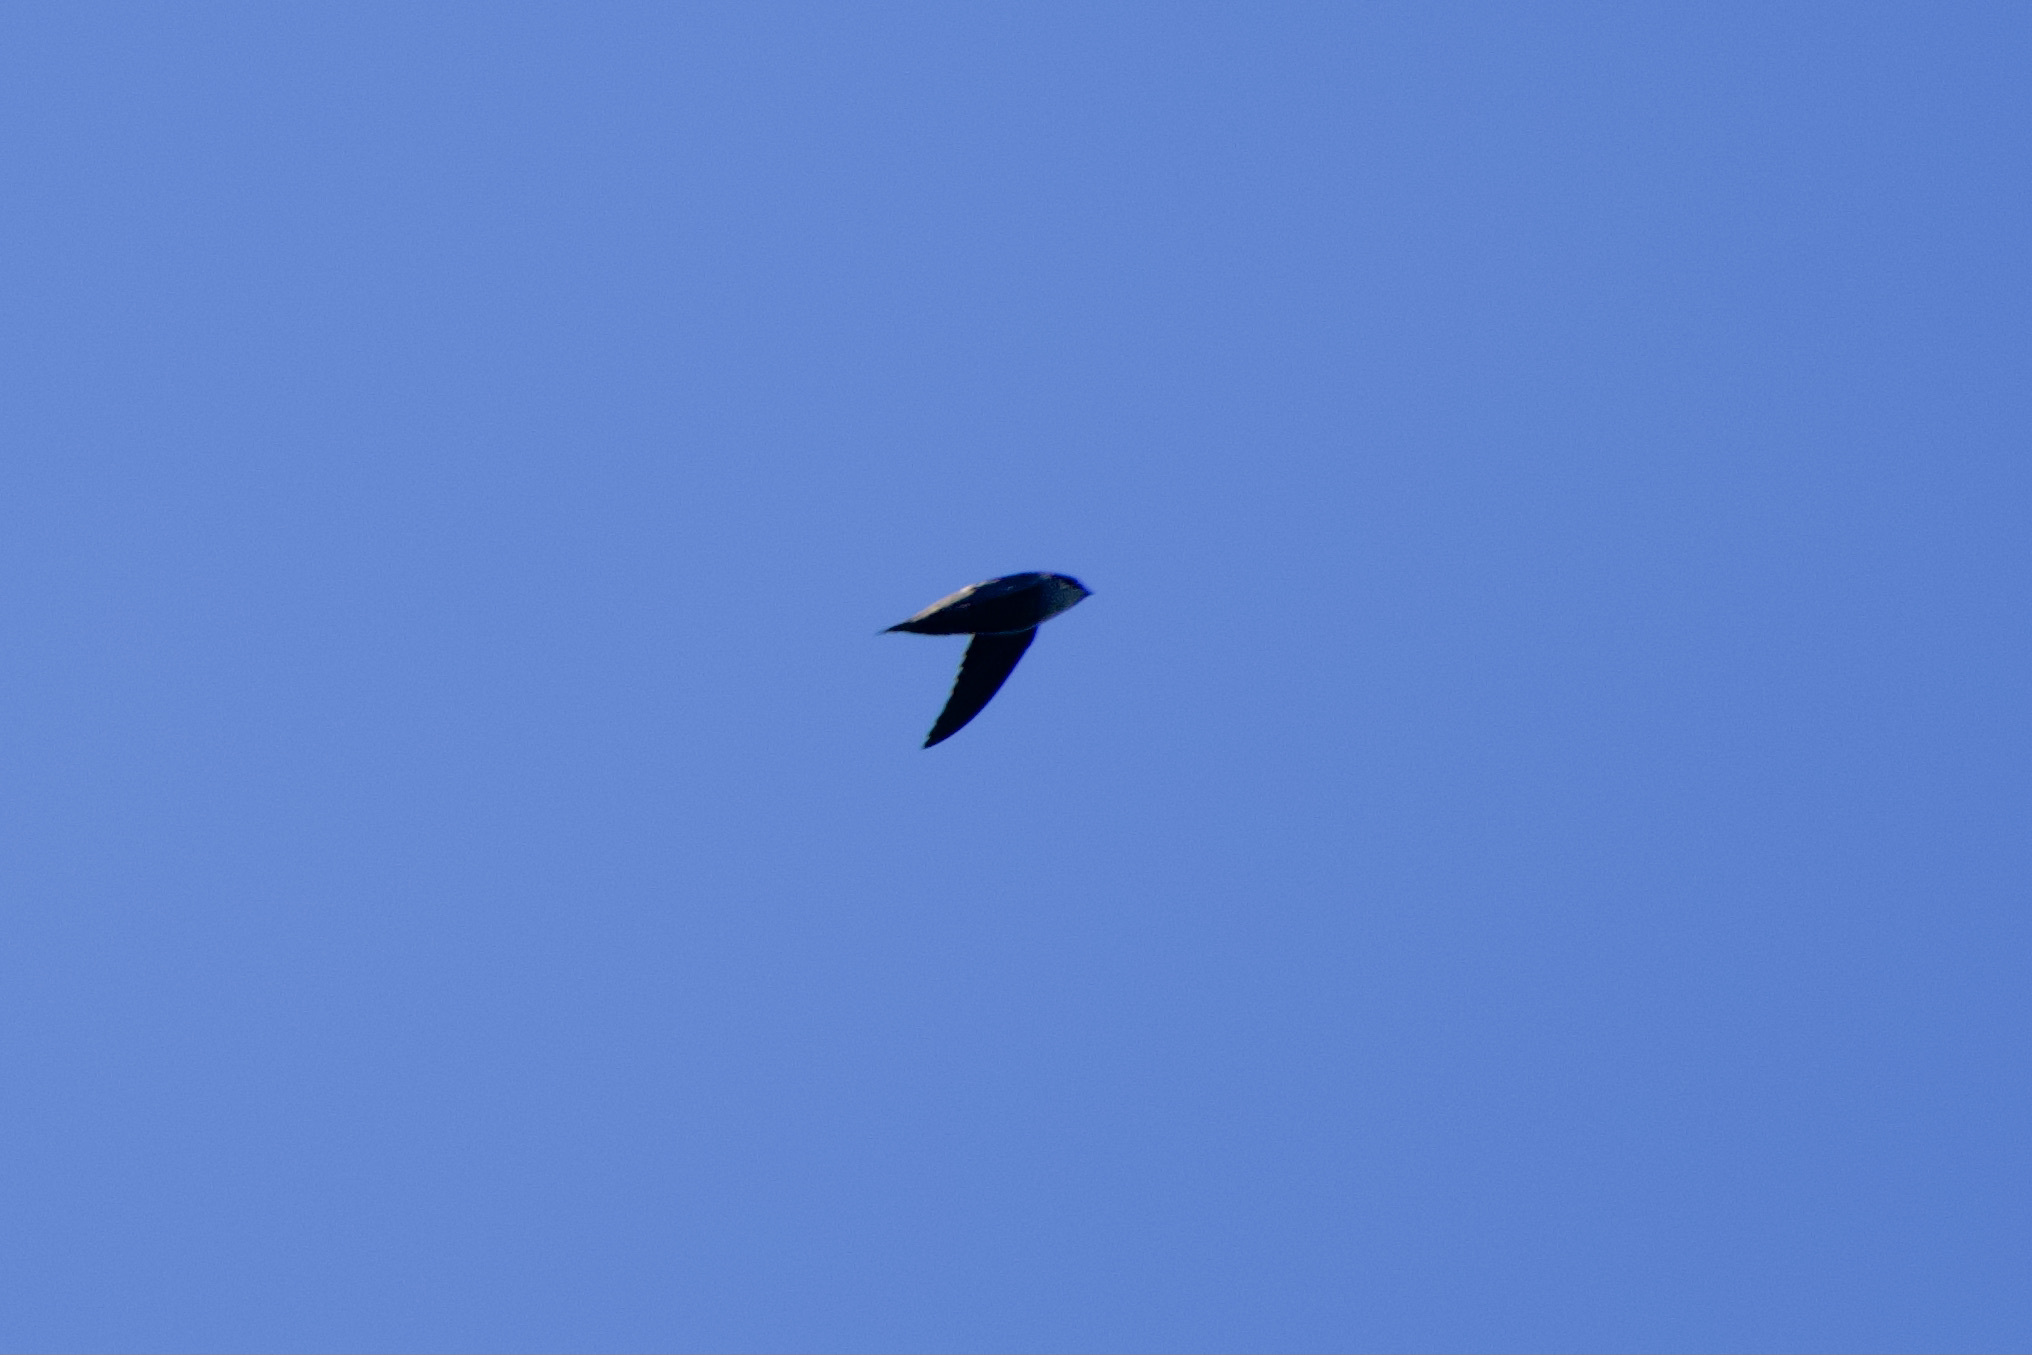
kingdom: Animalia
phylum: Chordata
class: Aves
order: Apodiformes
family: Apodidae
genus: Chaetura
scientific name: Chaetura vauxi
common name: Vaux's swift
